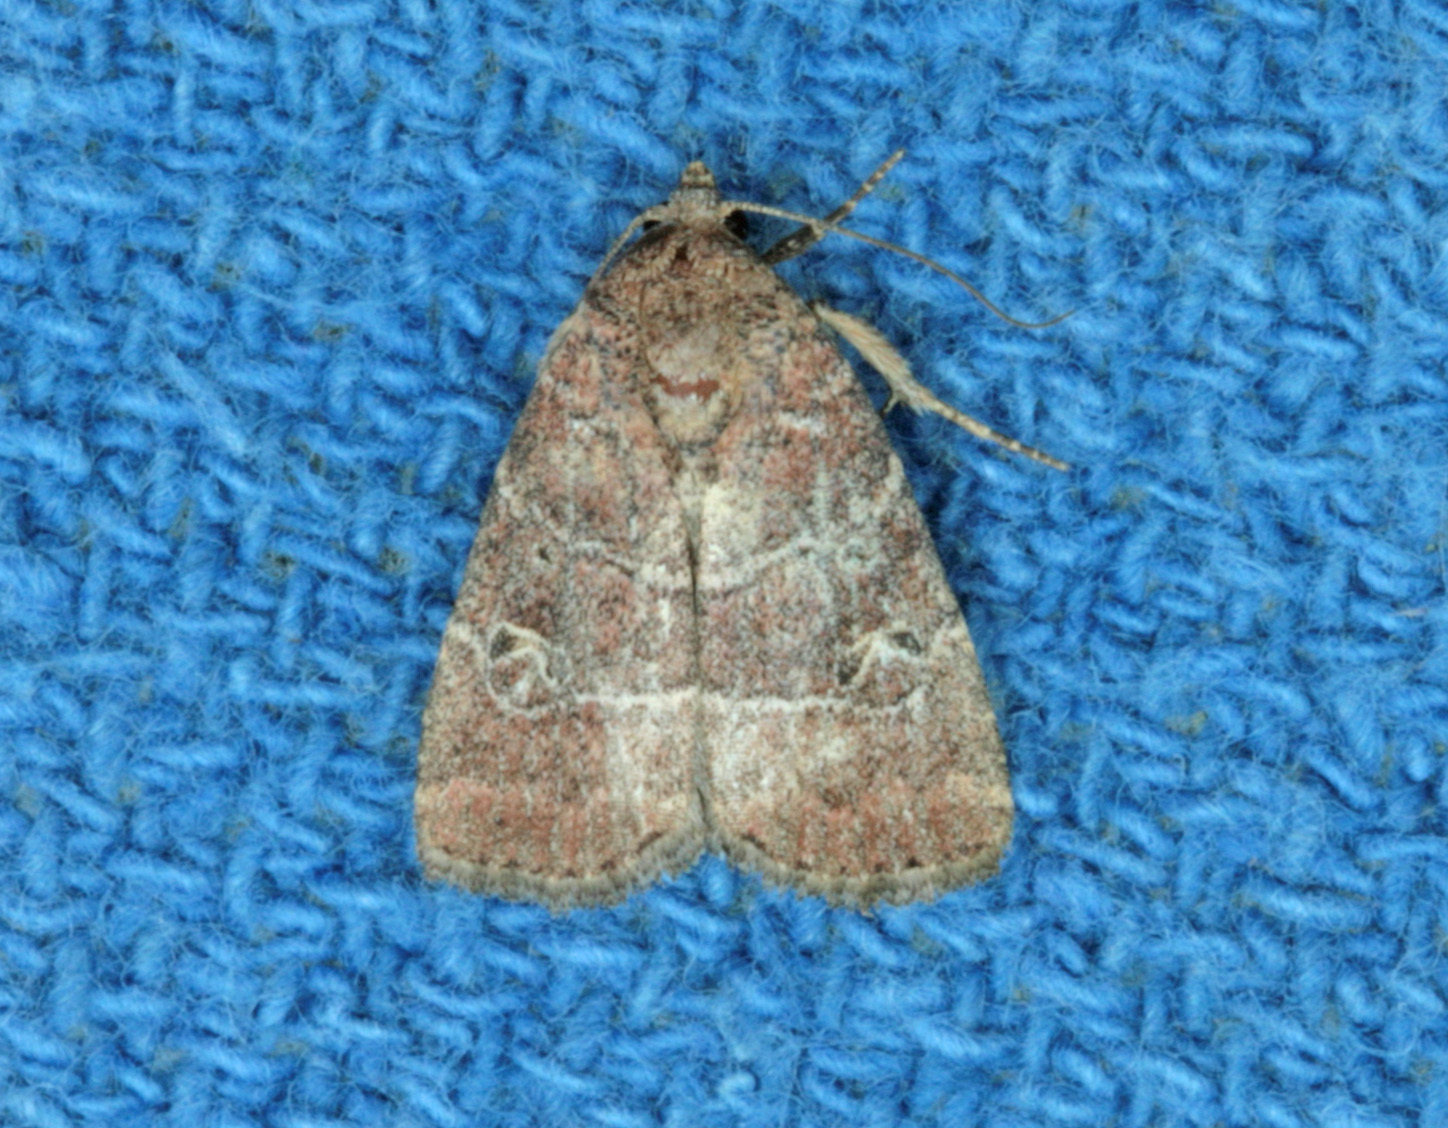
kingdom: Animalia
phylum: Arthropoda
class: Insecta
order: Lepidoptera
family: Noctuidae
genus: Elaphria
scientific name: Elaphria grata
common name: Grateful midget moth
